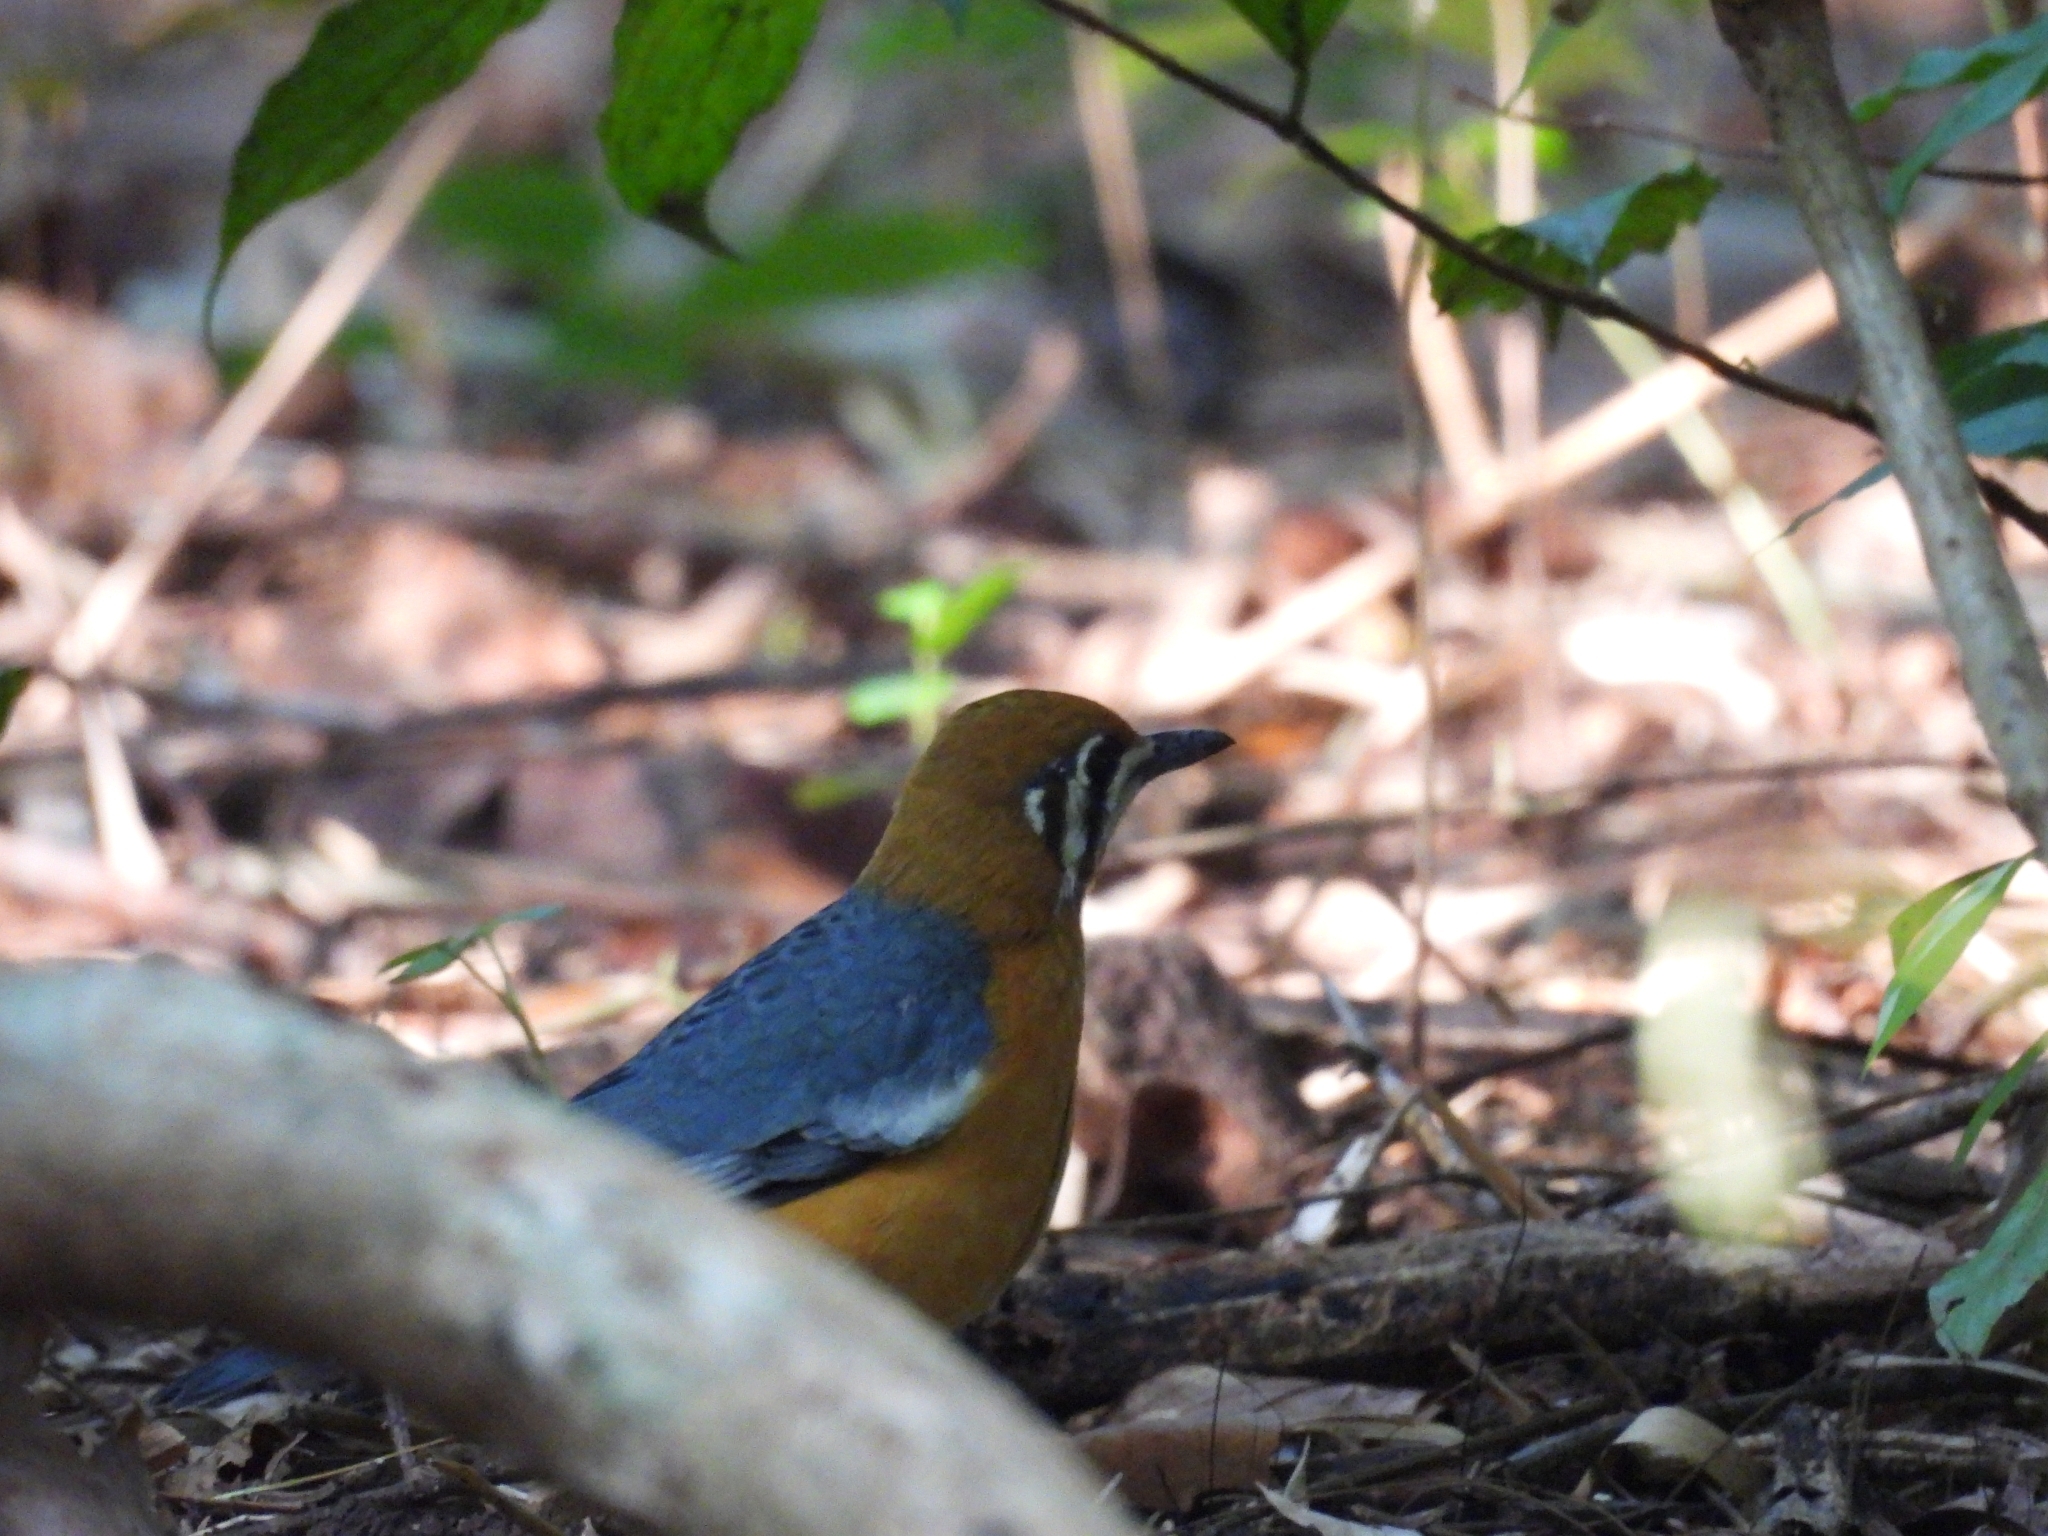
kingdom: Animalia
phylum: Chordata
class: Aves
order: Passeriformes
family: Turdidae
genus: Geokichla
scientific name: Geokichla citrina
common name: Orange-headed thrush
